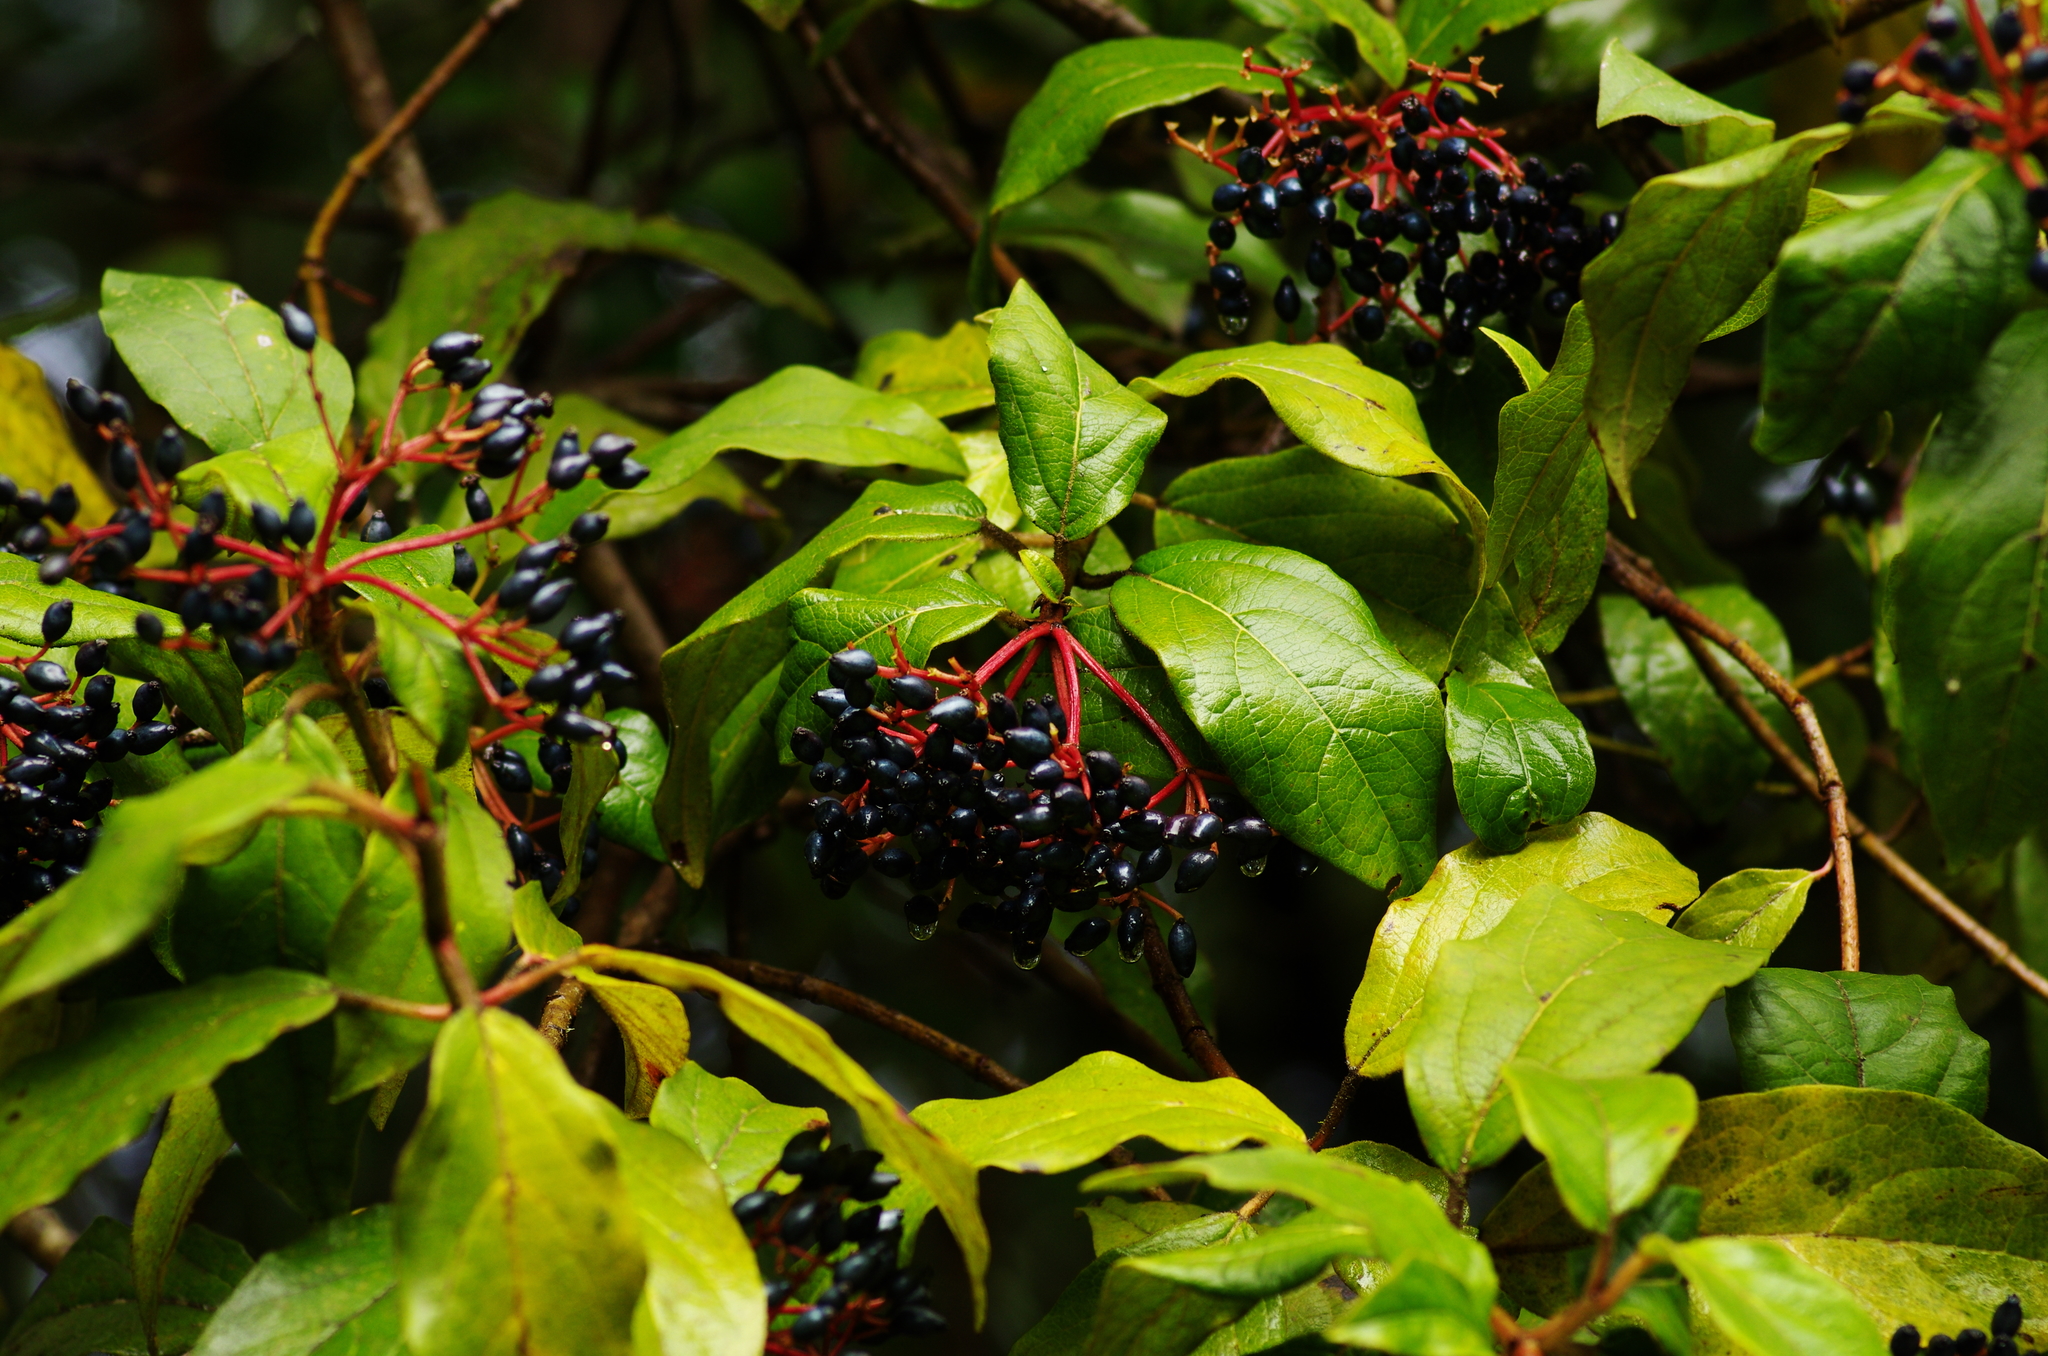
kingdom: Plantae
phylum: Tracheophyta
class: Magnoliopsida
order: Dipsacales
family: Viburnaceae
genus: Viburnum
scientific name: Viburnum rugosum
